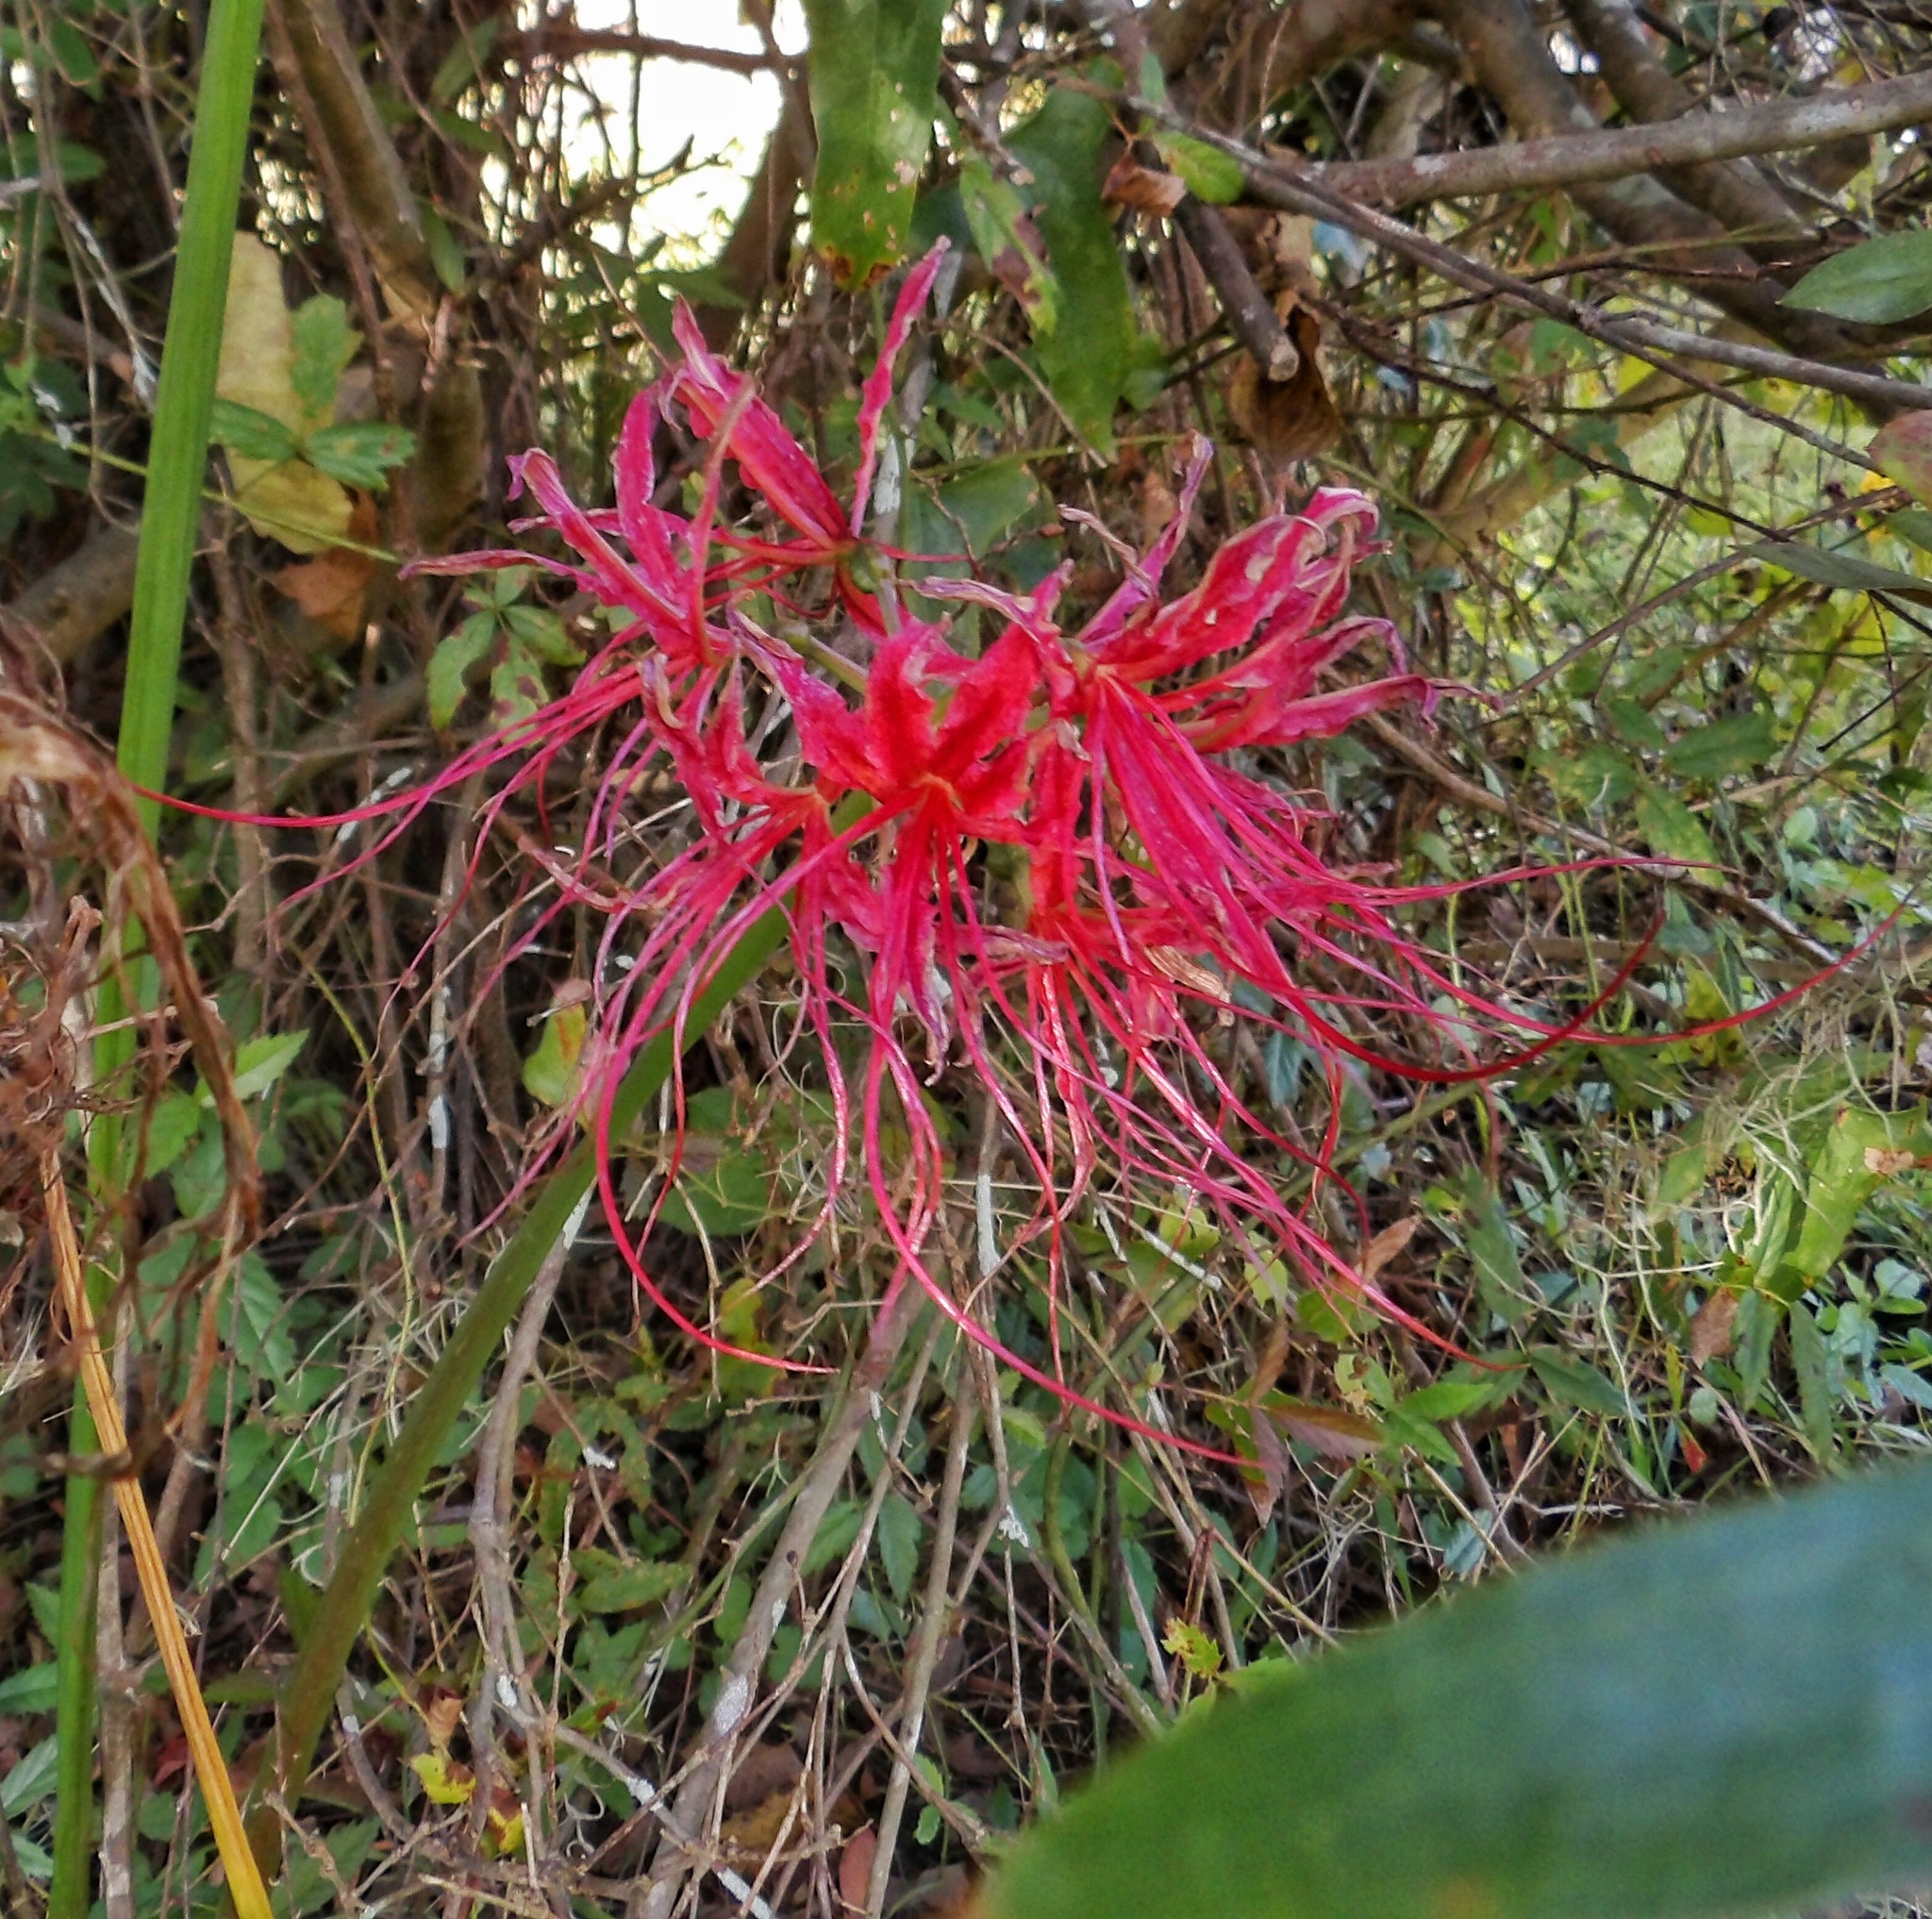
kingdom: Plantae
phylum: Tracheophyta
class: Liliopsida
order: Asparagales
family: Amaryllidaceae
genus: Lycoris
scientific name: Lycoris radiata
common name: Red spider lily
